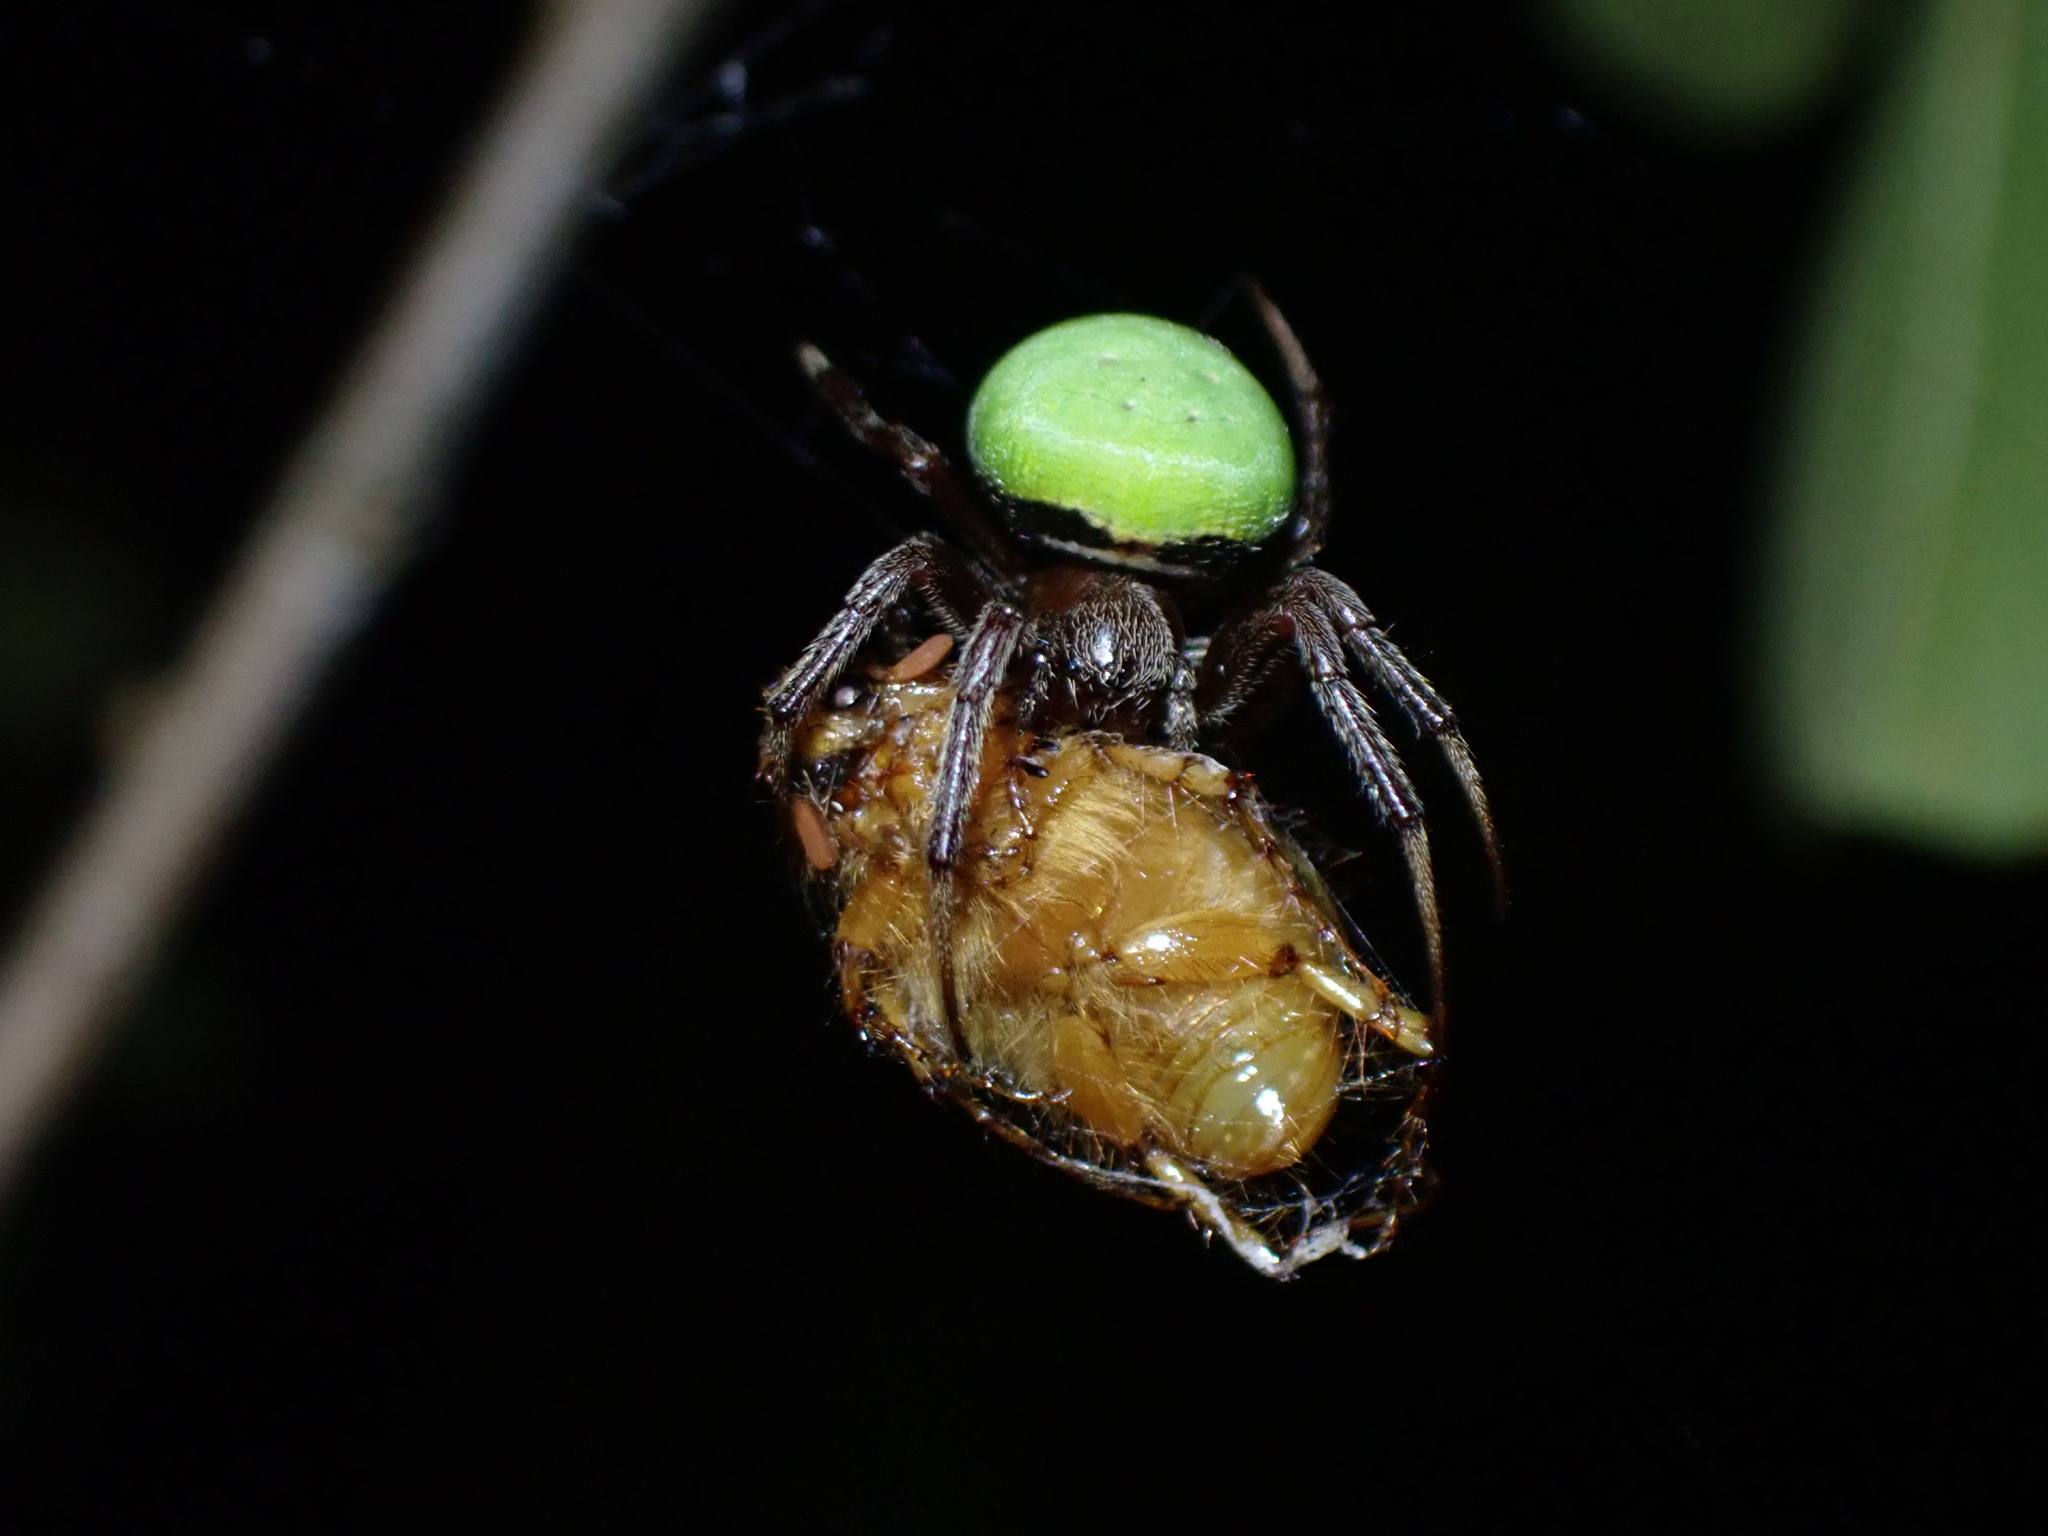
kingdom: Animalia
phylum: Arthropoda
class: Arachnida
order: Araneae
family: Araneidae
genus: Araneus
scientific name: Araneus apricus
